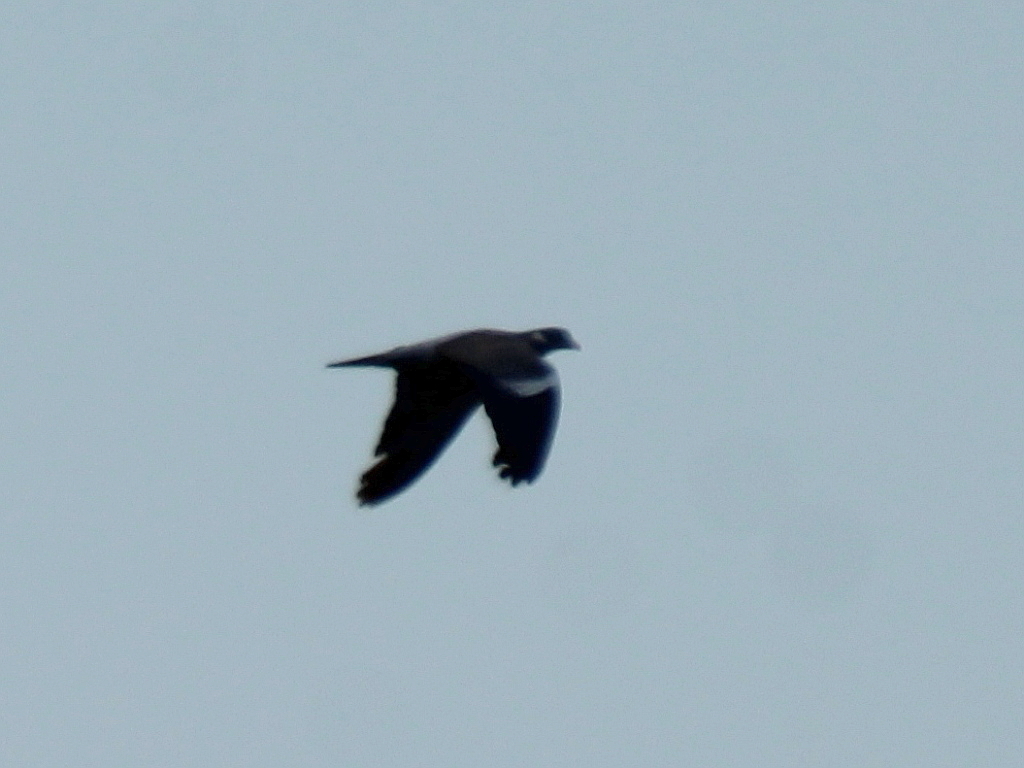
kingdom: Animalia
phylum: Chordata
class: Aves
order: Columbiformes
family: Columbidae
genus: Columba
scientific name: Columba palumbus
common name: Common wood pigeon
